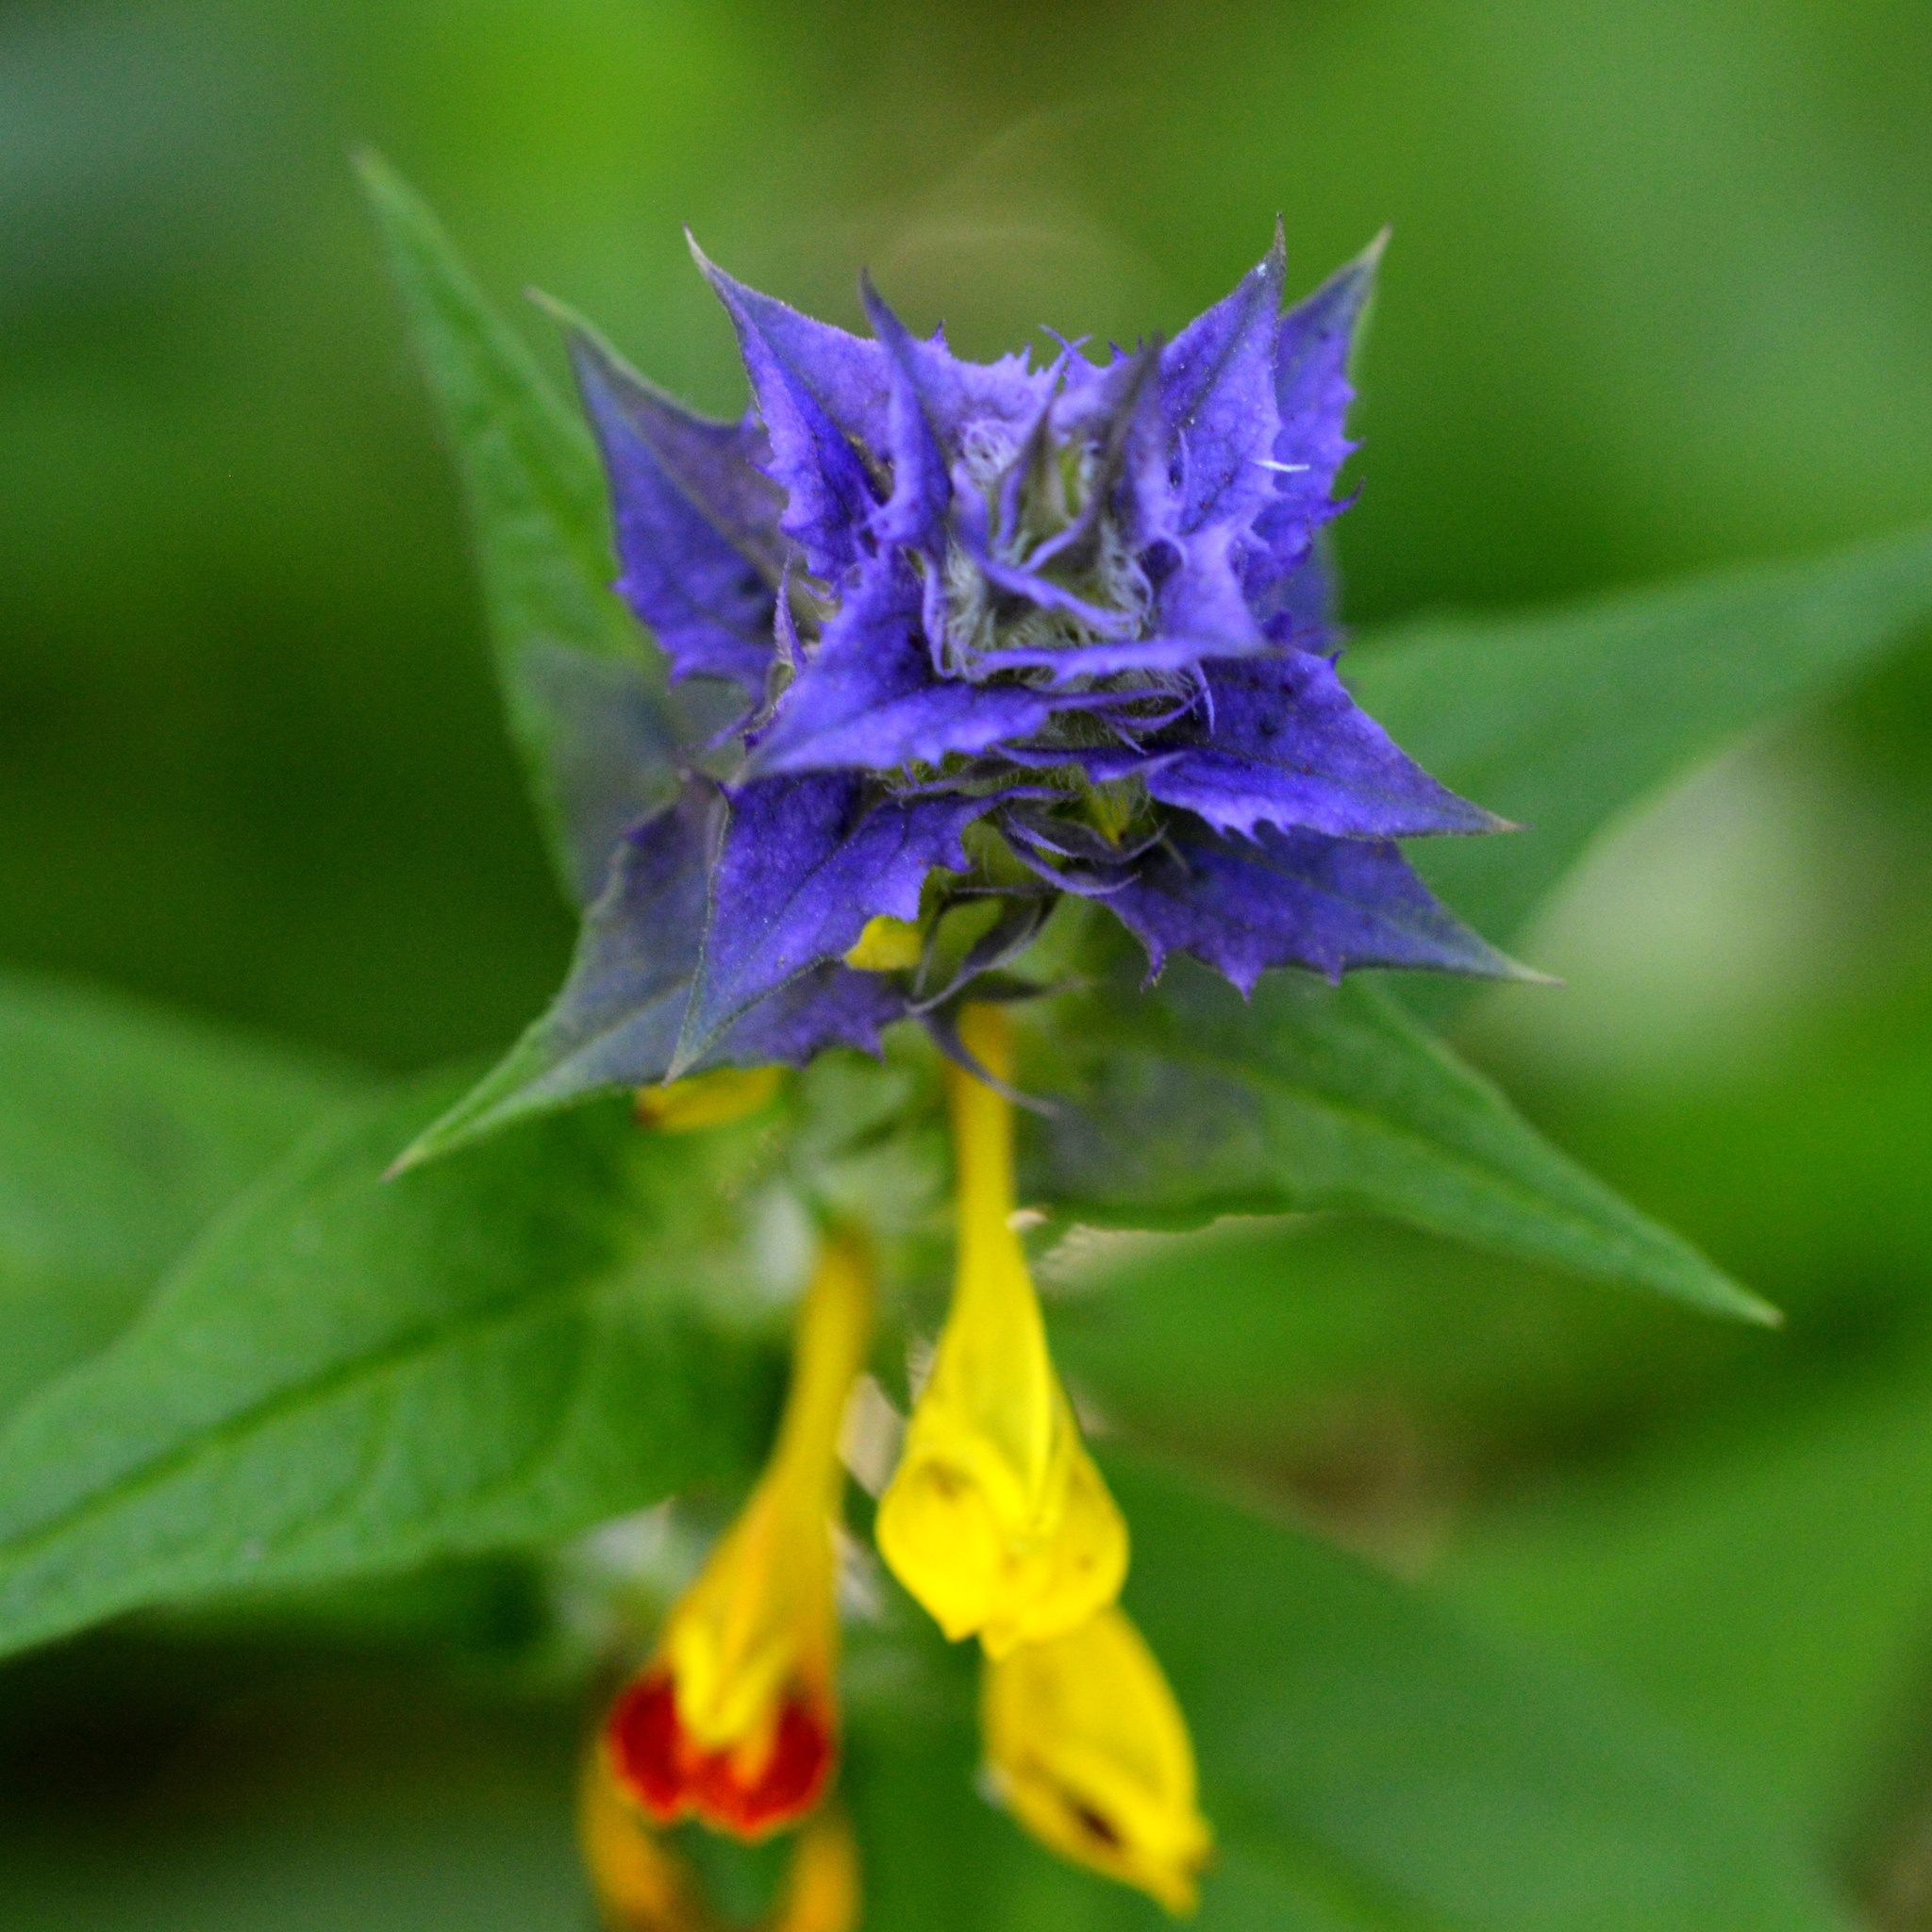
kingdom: Plantae
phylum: Tracheophyta
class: Magnoliopsida
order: Lamiales
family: Orobanchaceae
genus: Melampyrum
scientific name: Melampyrum nemorosum
